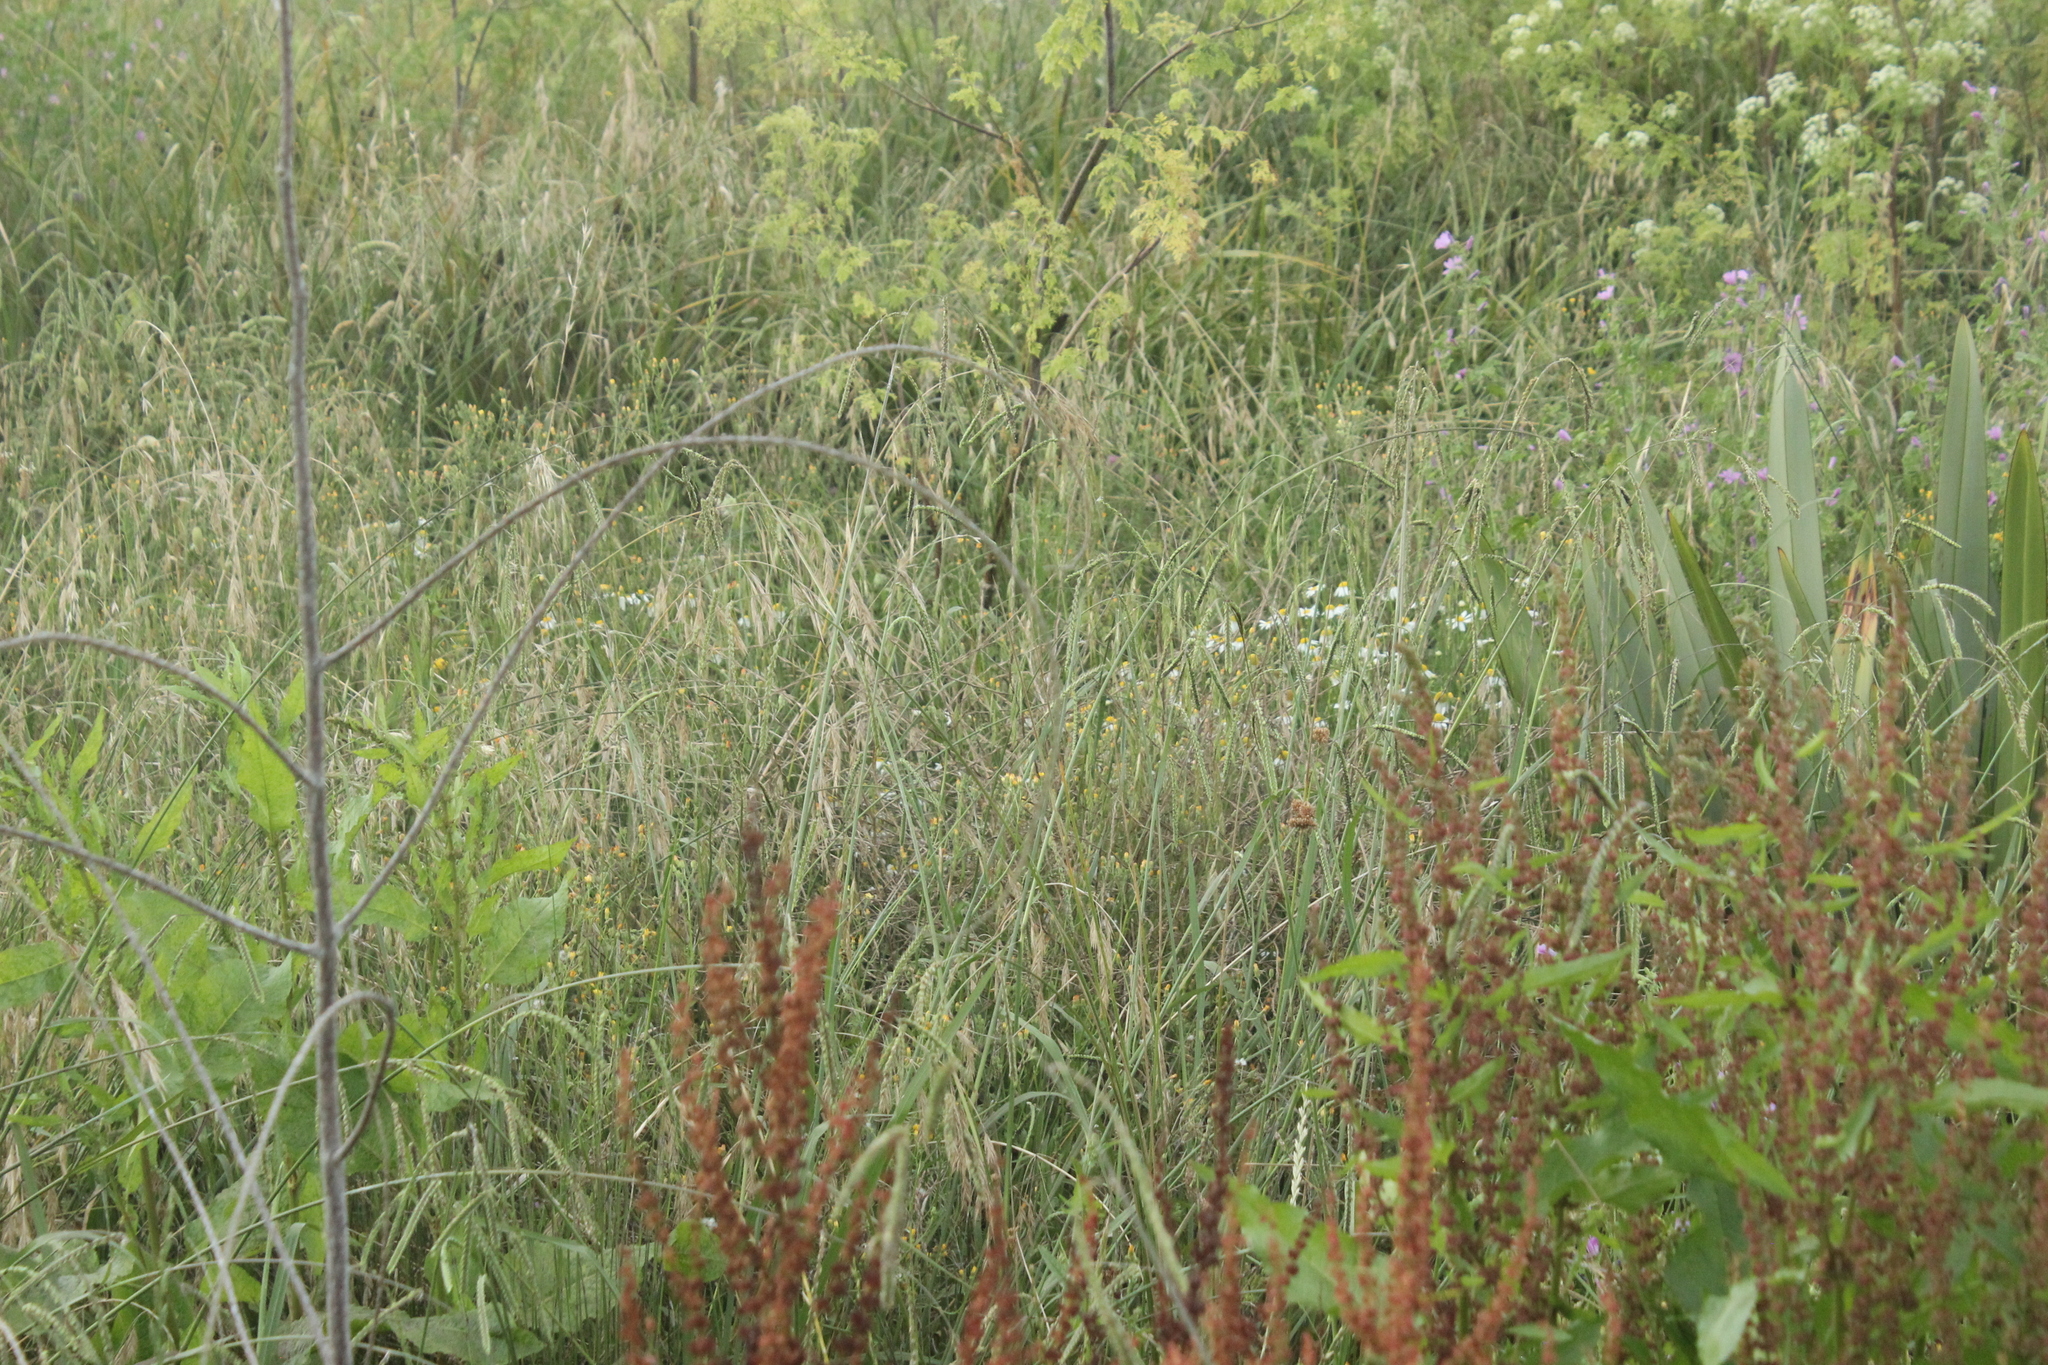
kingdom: Plantae
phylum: Tracheophyta
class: Liliopsida
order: Poales
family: Poaceae
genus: Paspalum
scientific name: Paspalum dilatatum
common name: Dallisgrass
